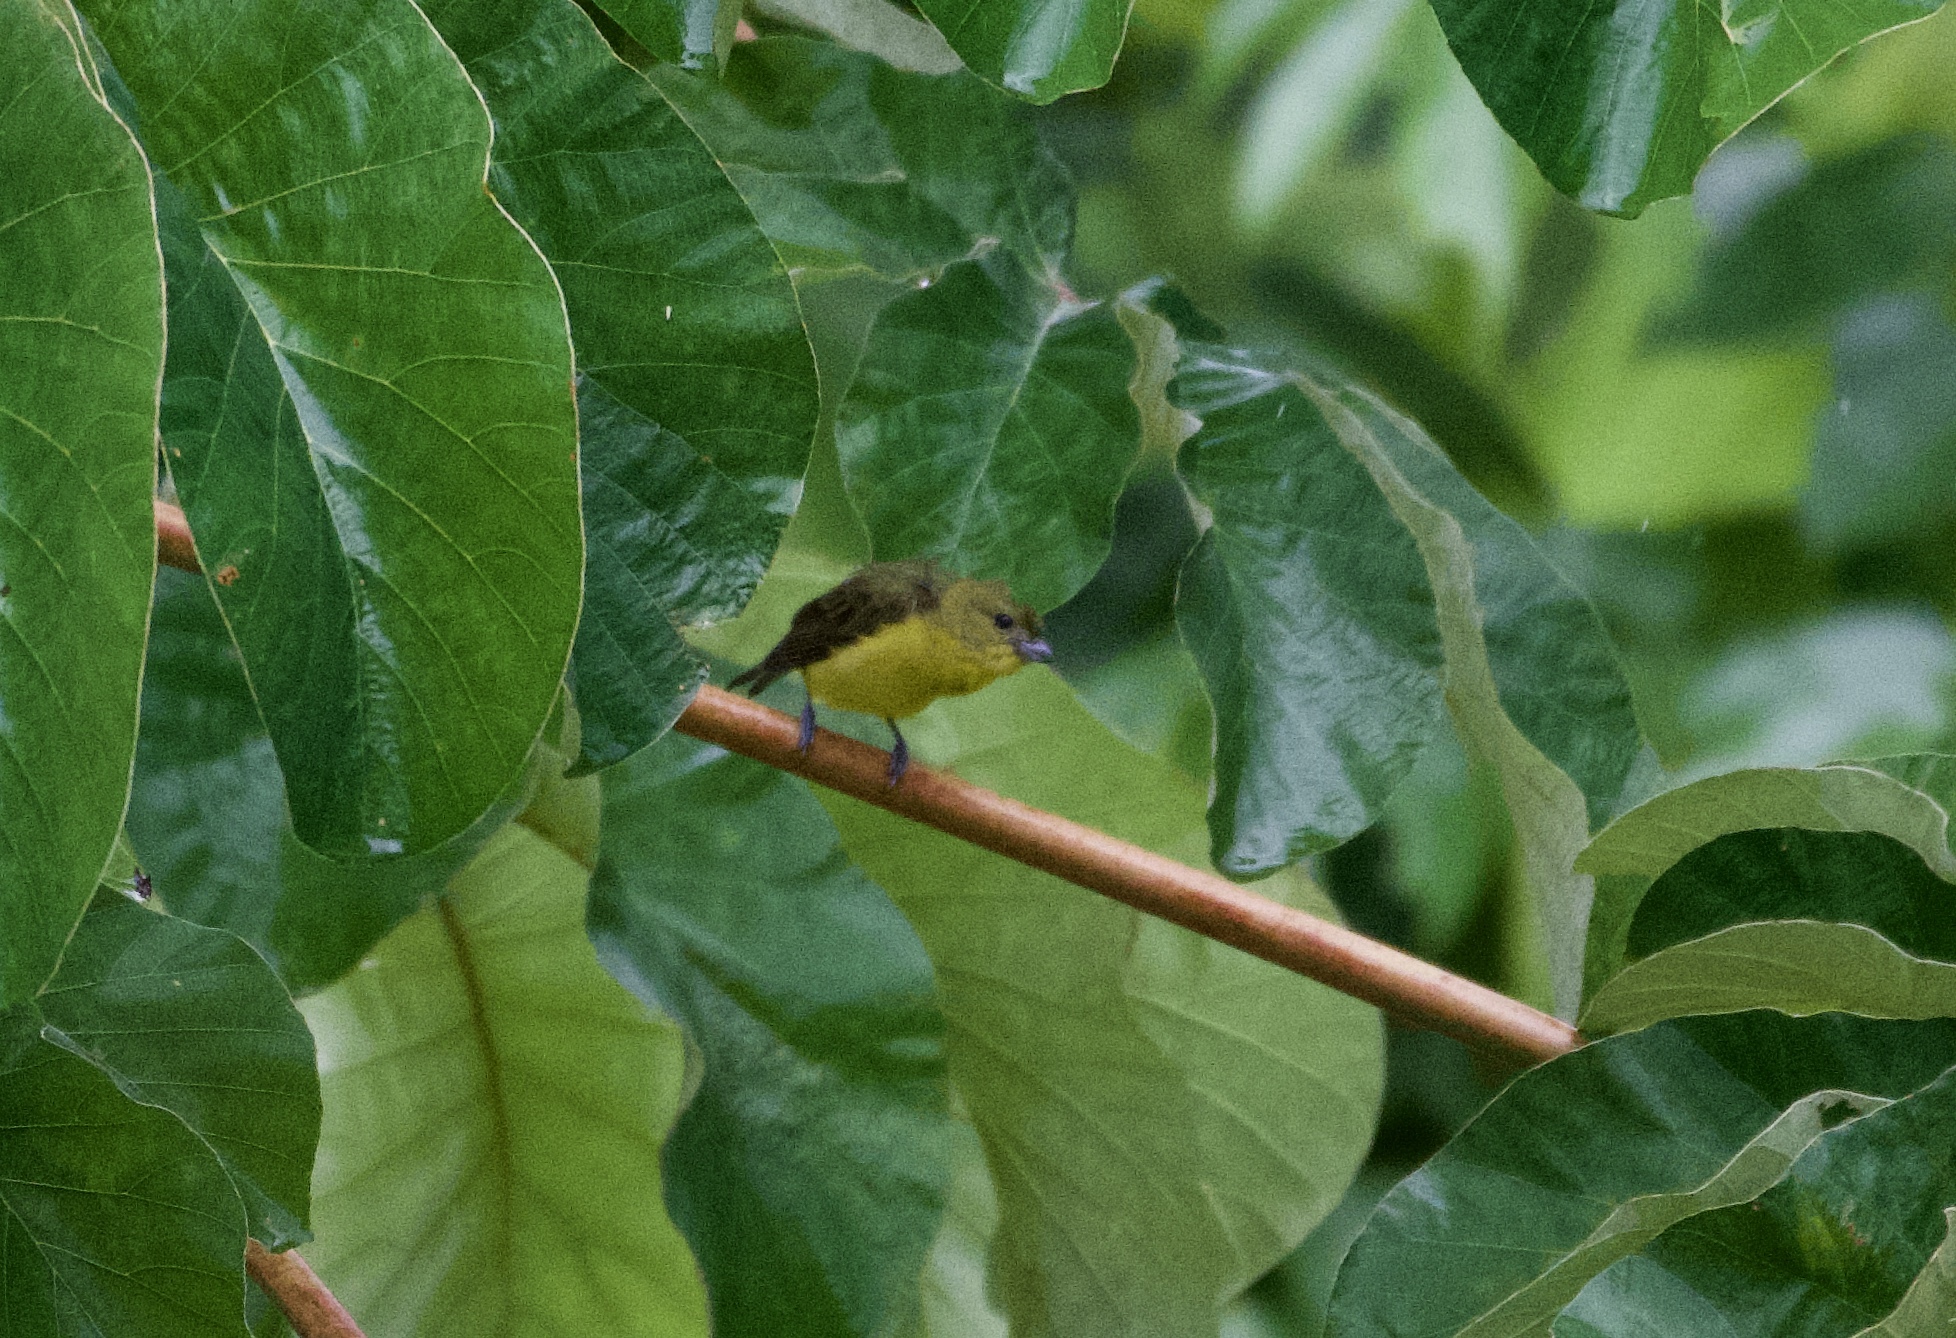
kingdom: Animalia
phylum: Chordata
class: Aves
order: Passeriformes
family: Fringillidae
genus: Euphonia
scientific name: Euphonia laniirostris
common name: Thick-billed euphonia
